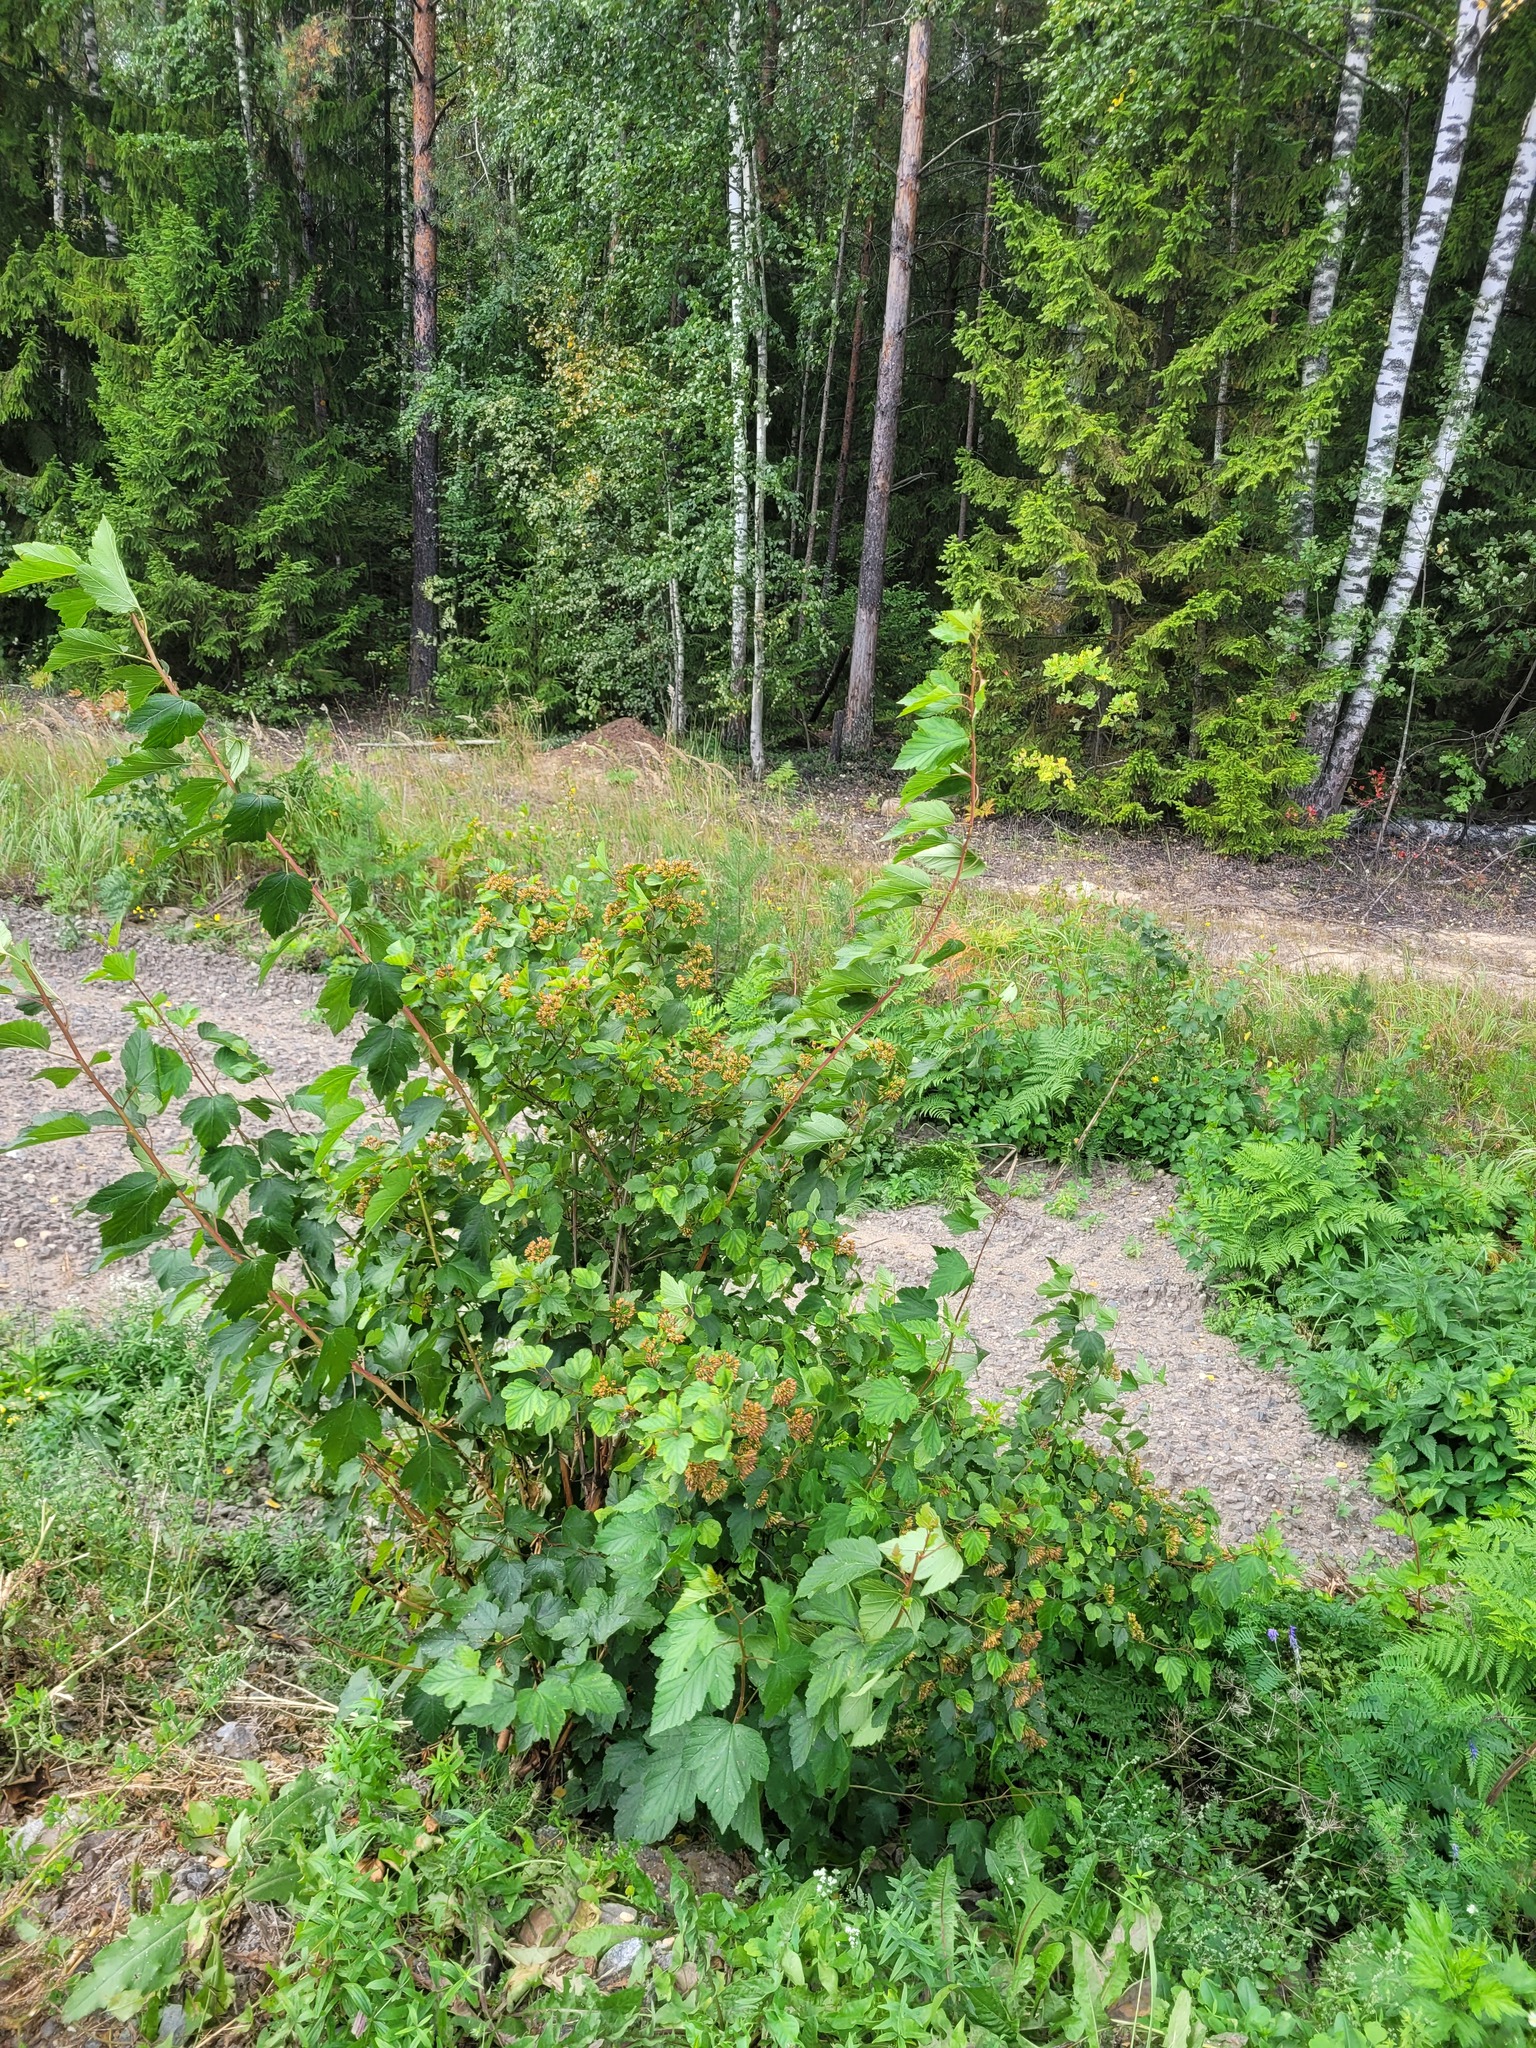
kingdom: Plantae
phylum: Tracheophyta
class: Magnoliopsida
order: Rosales
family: Rosaceae
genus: Physocarpus
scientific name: Physocarpus opulifolius
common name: Ninebark
